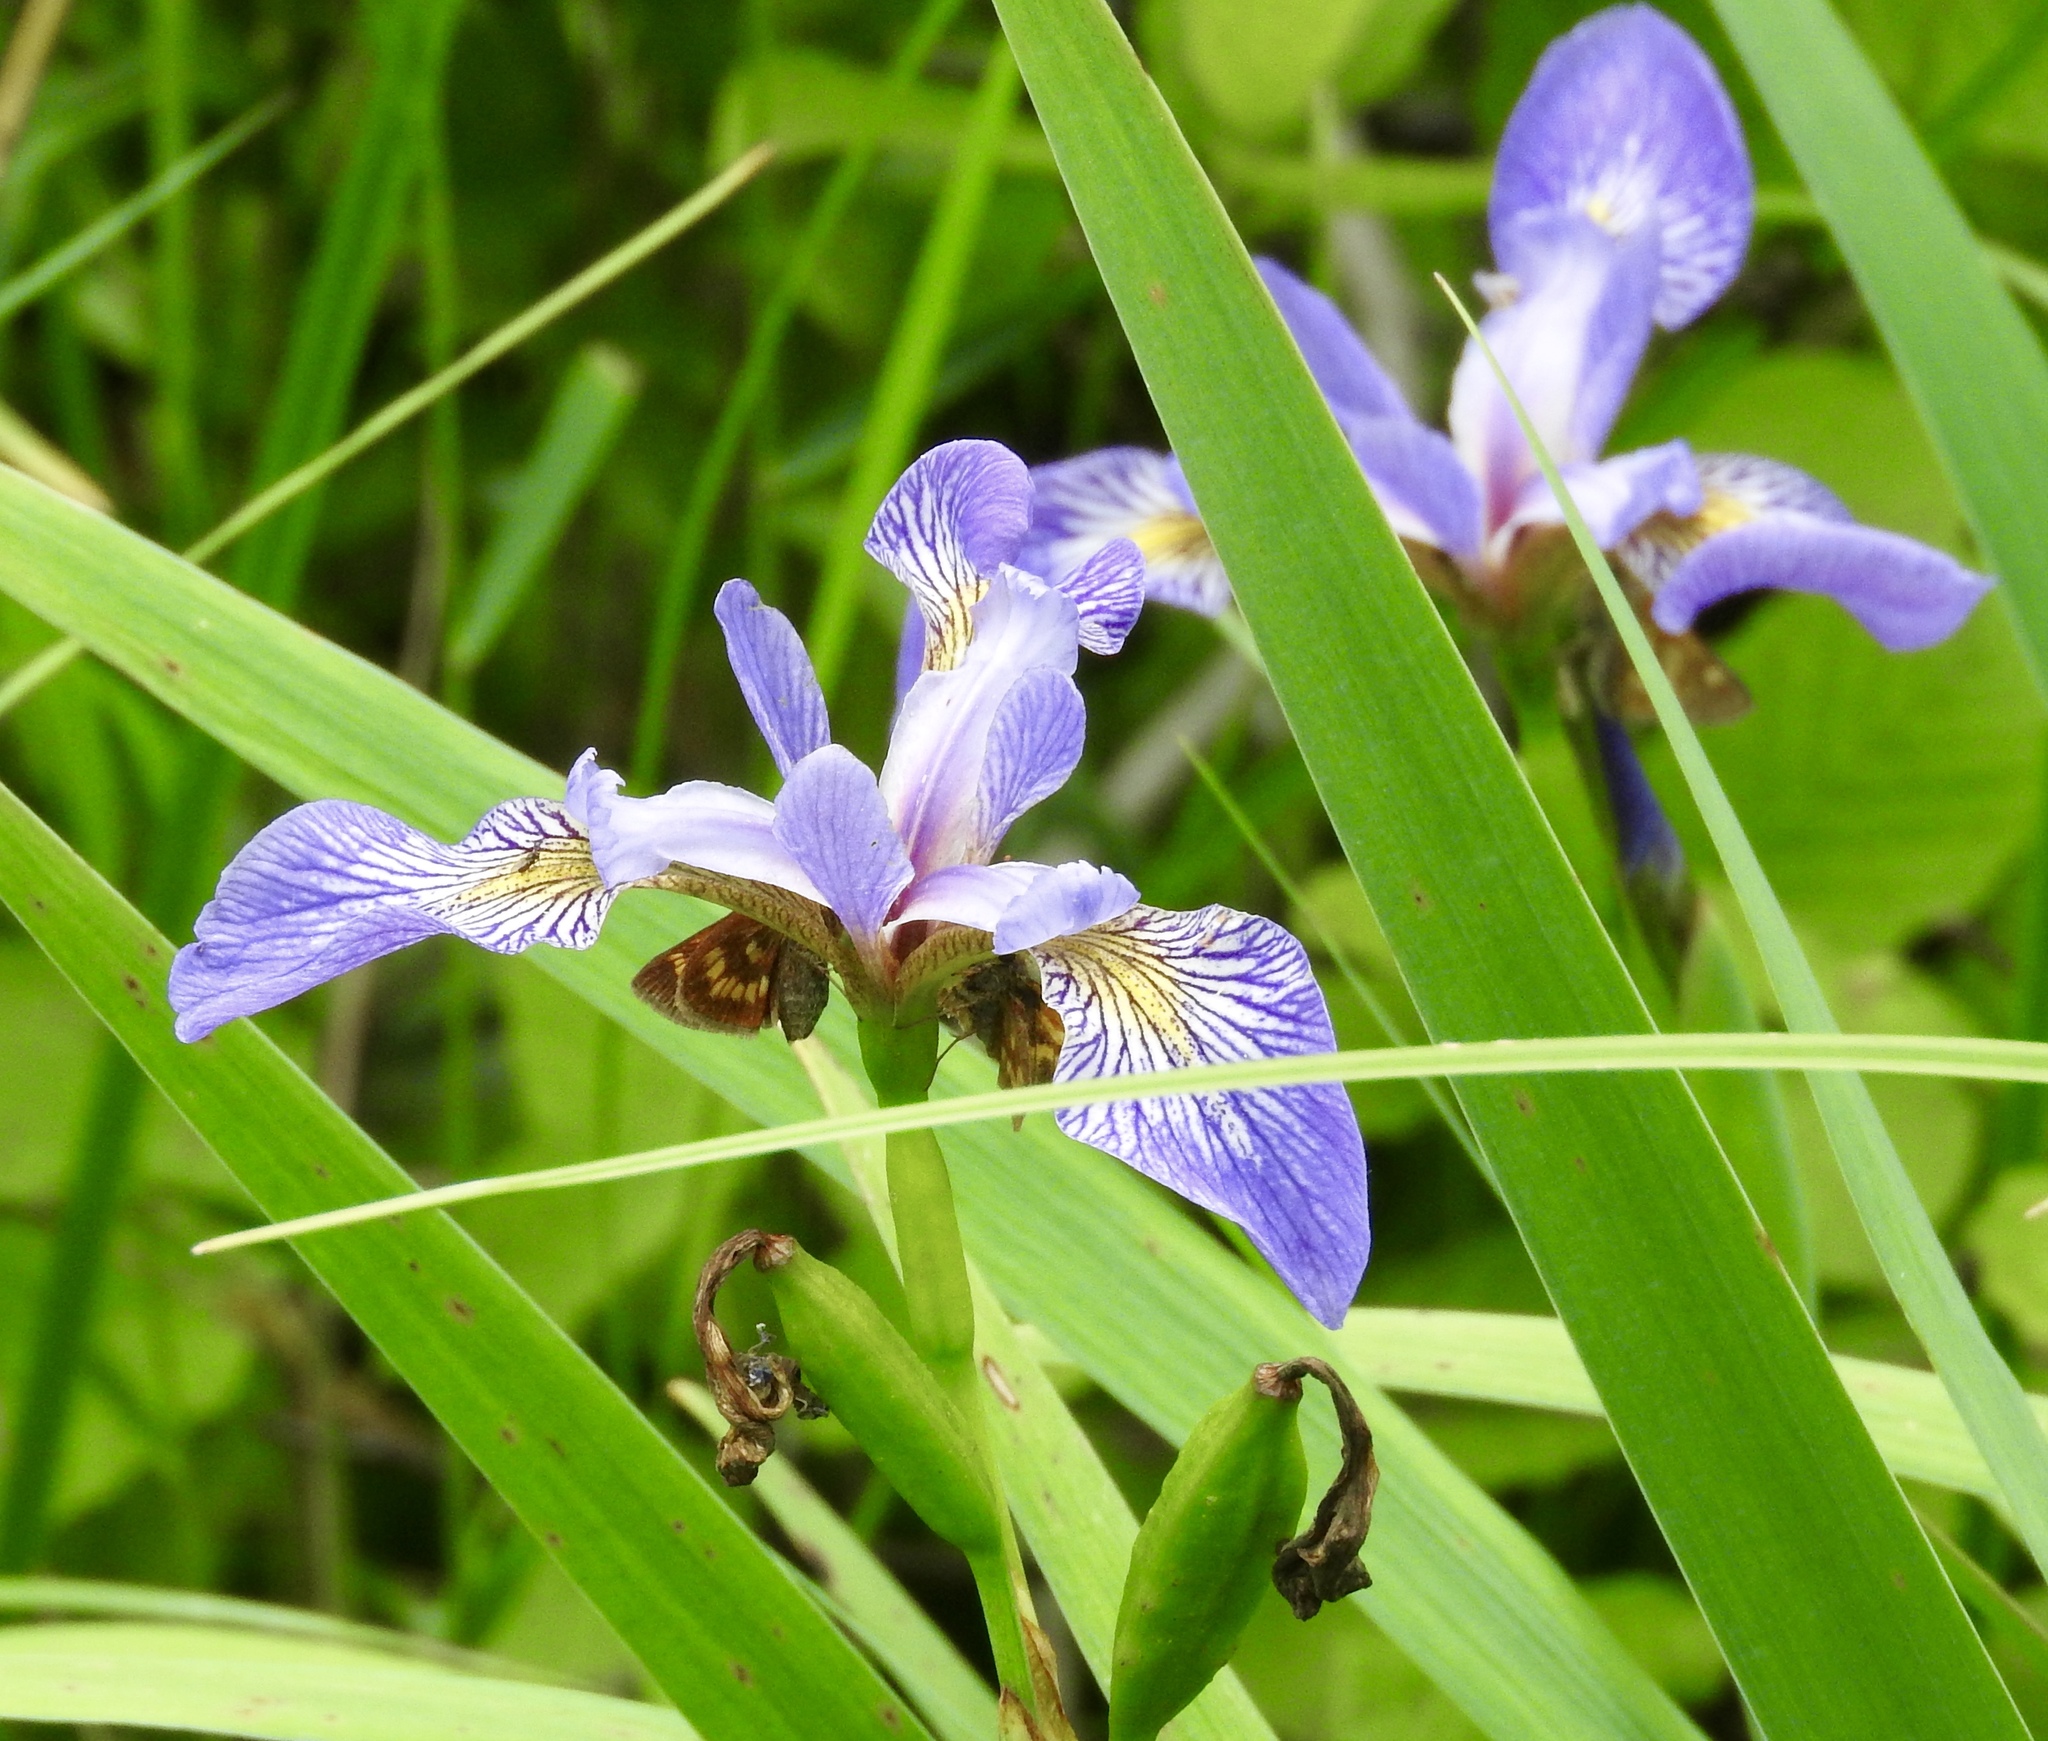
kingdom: Plantae
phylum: Tracheophyta
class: Liliopsida
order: Asparagales
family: Iridaceae
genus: Iris
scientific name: Iris versicolor
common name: Purple iris
